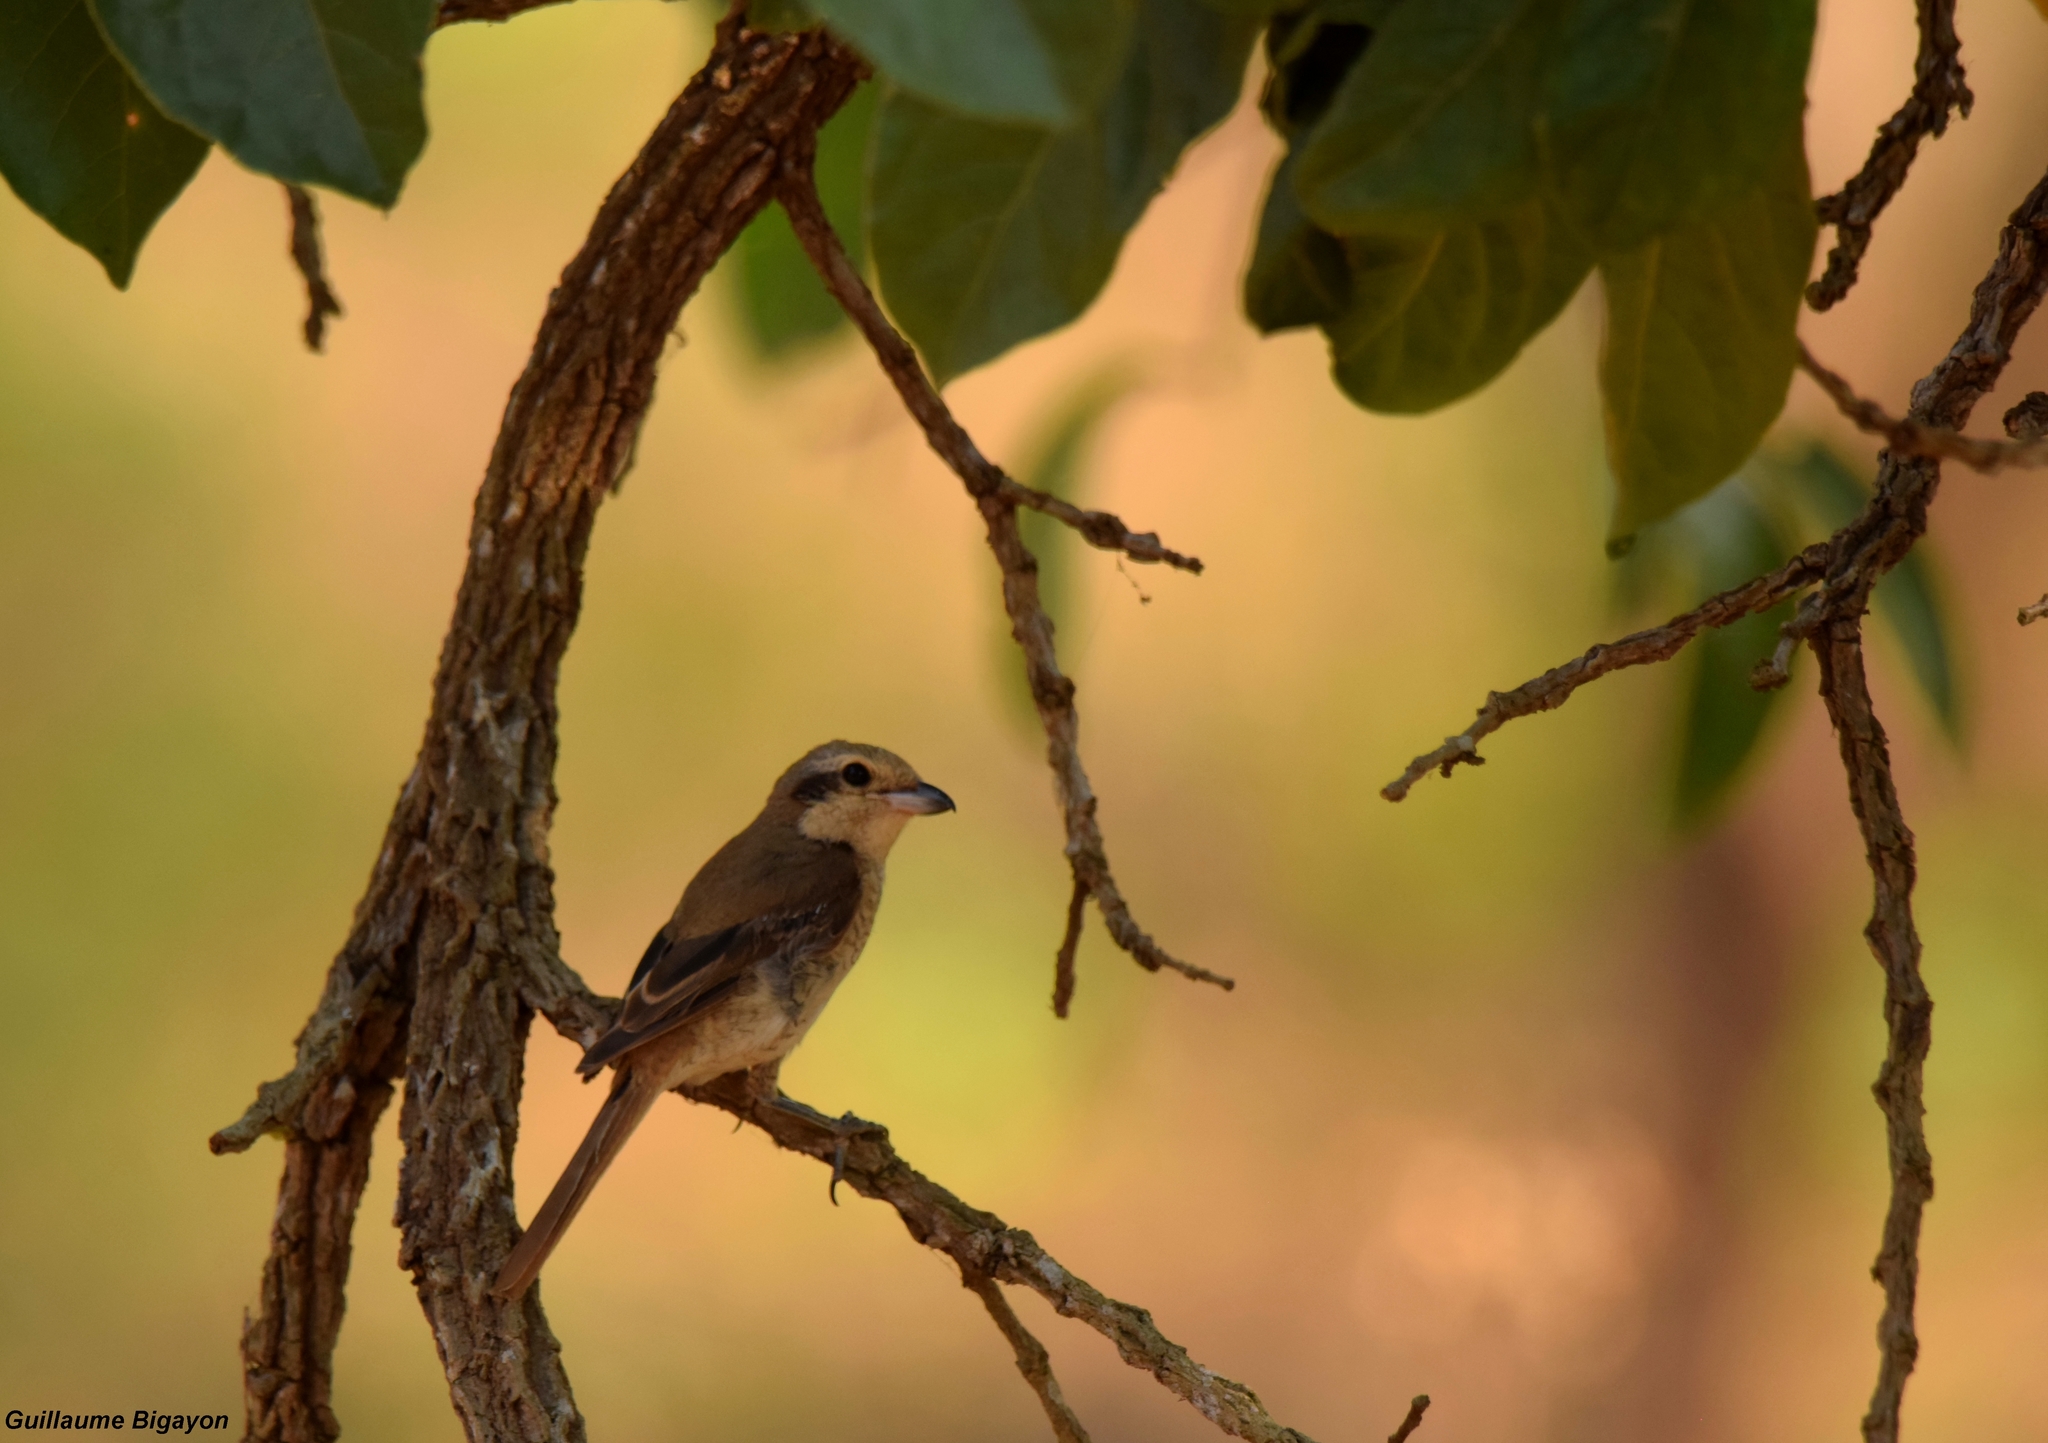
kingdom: Animalia
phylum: Chordata
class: Aves
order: Passeriformes
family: Laniidae
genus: Lanius
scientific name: Lanius cristatus
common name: Brown shrike
